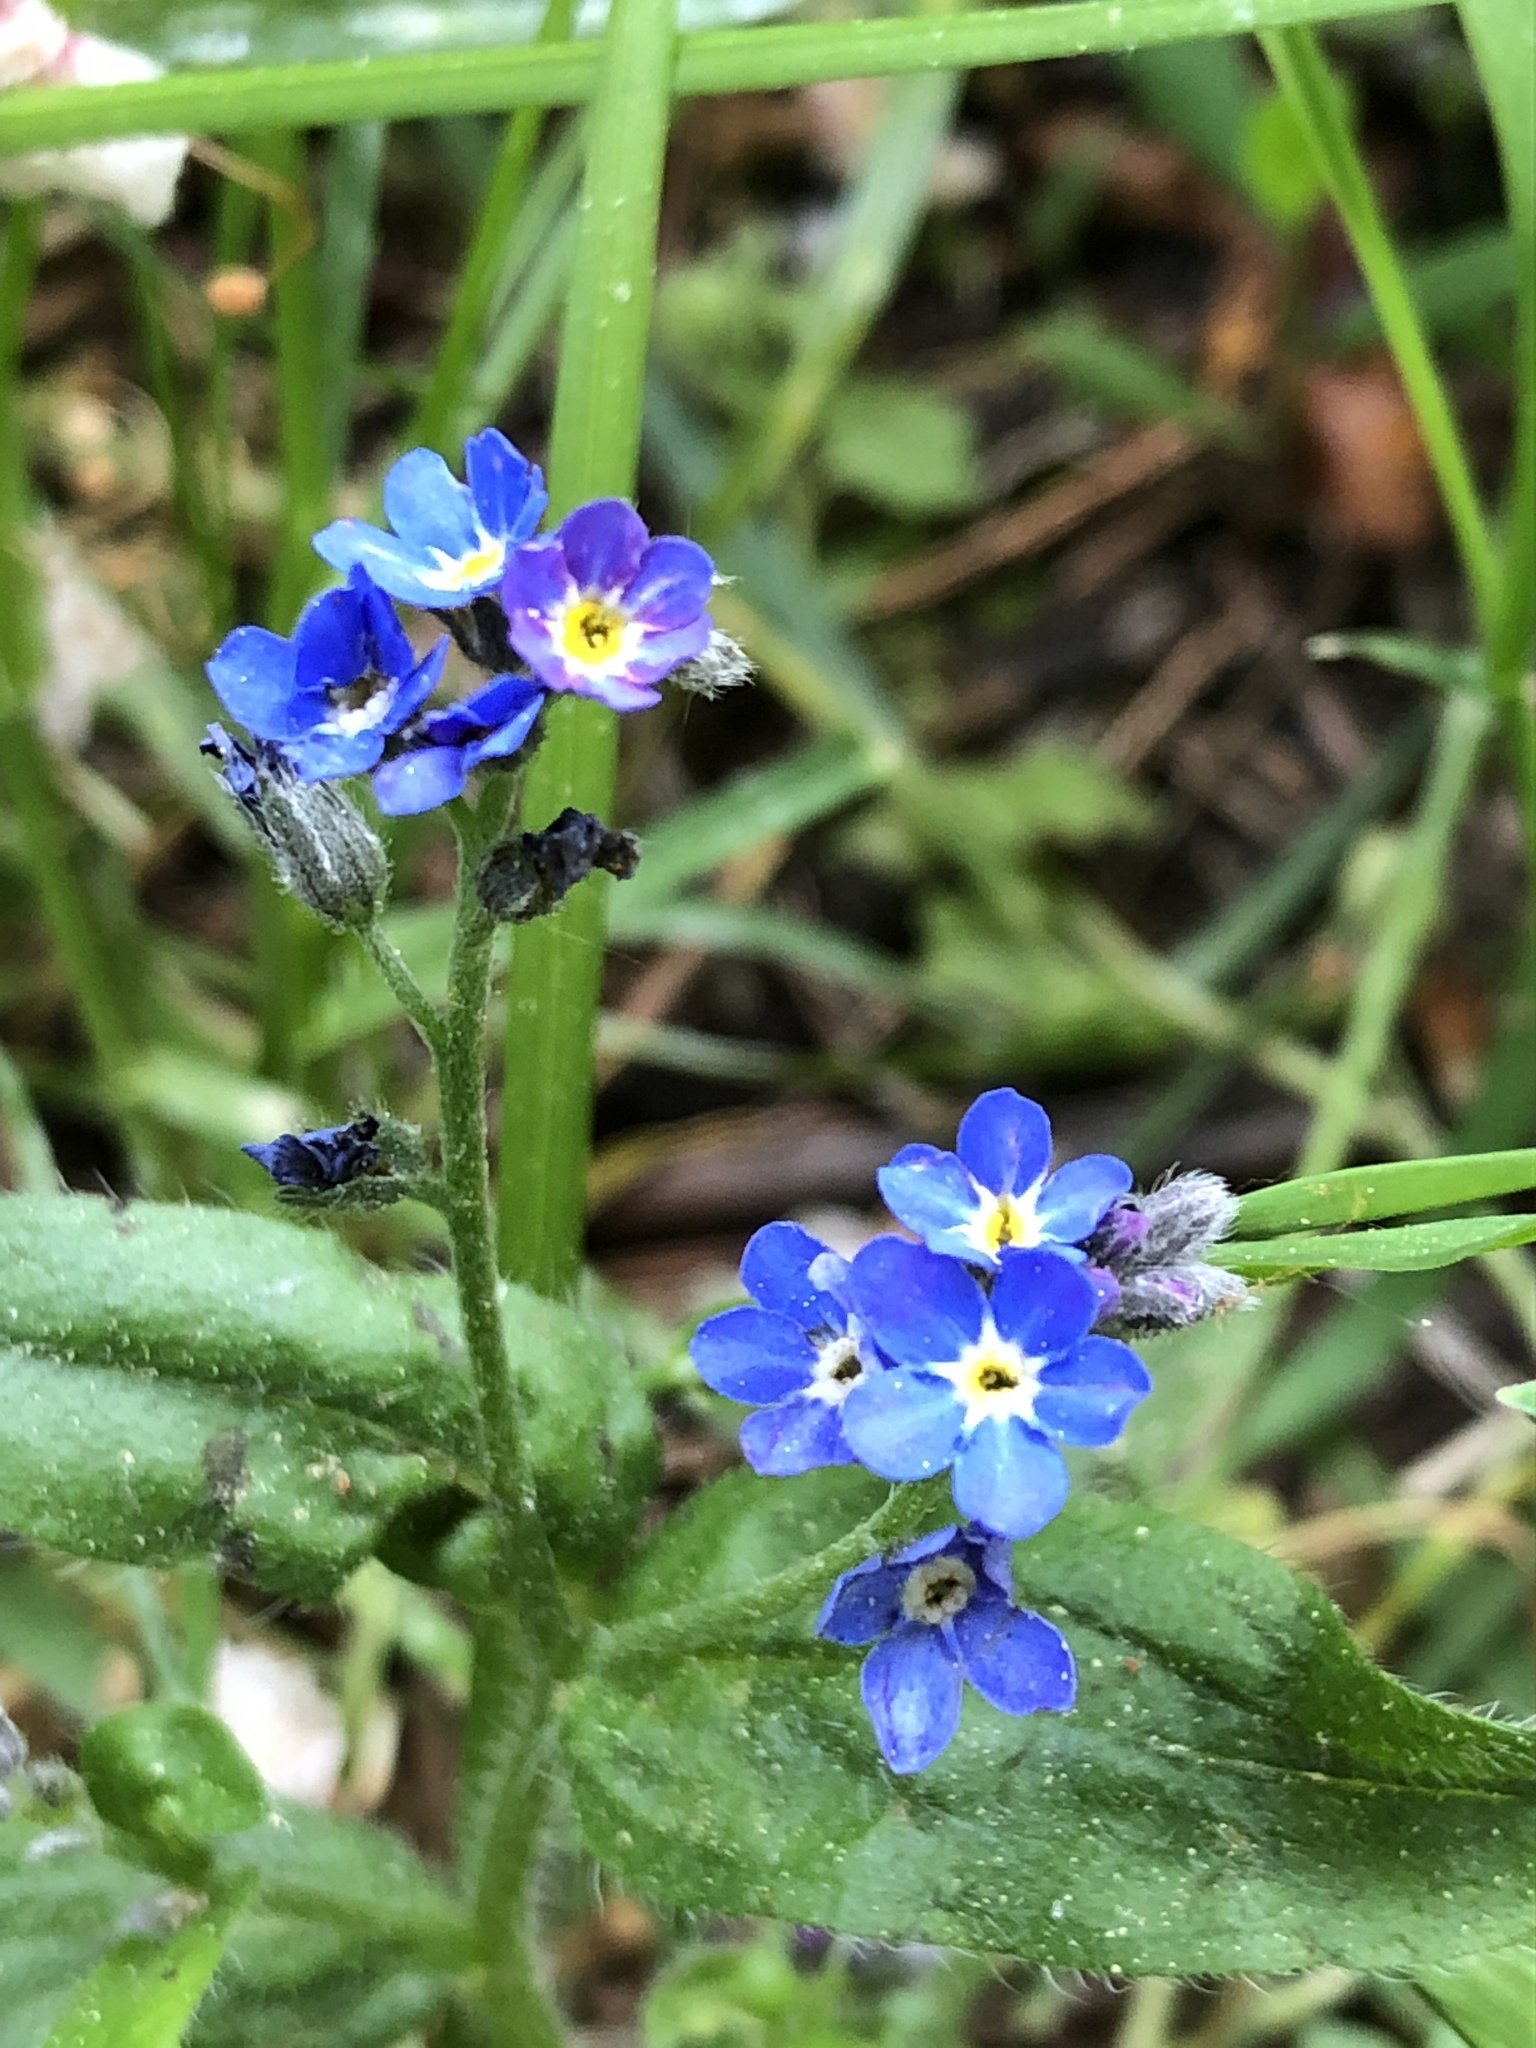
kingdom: Plantae
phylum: Tracheophyta
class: Magnoliopsida
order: Boraginales
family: Boraginaceae
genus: Myosotis
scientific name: Myosotis sylvatica
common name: Wood forget-me-not
